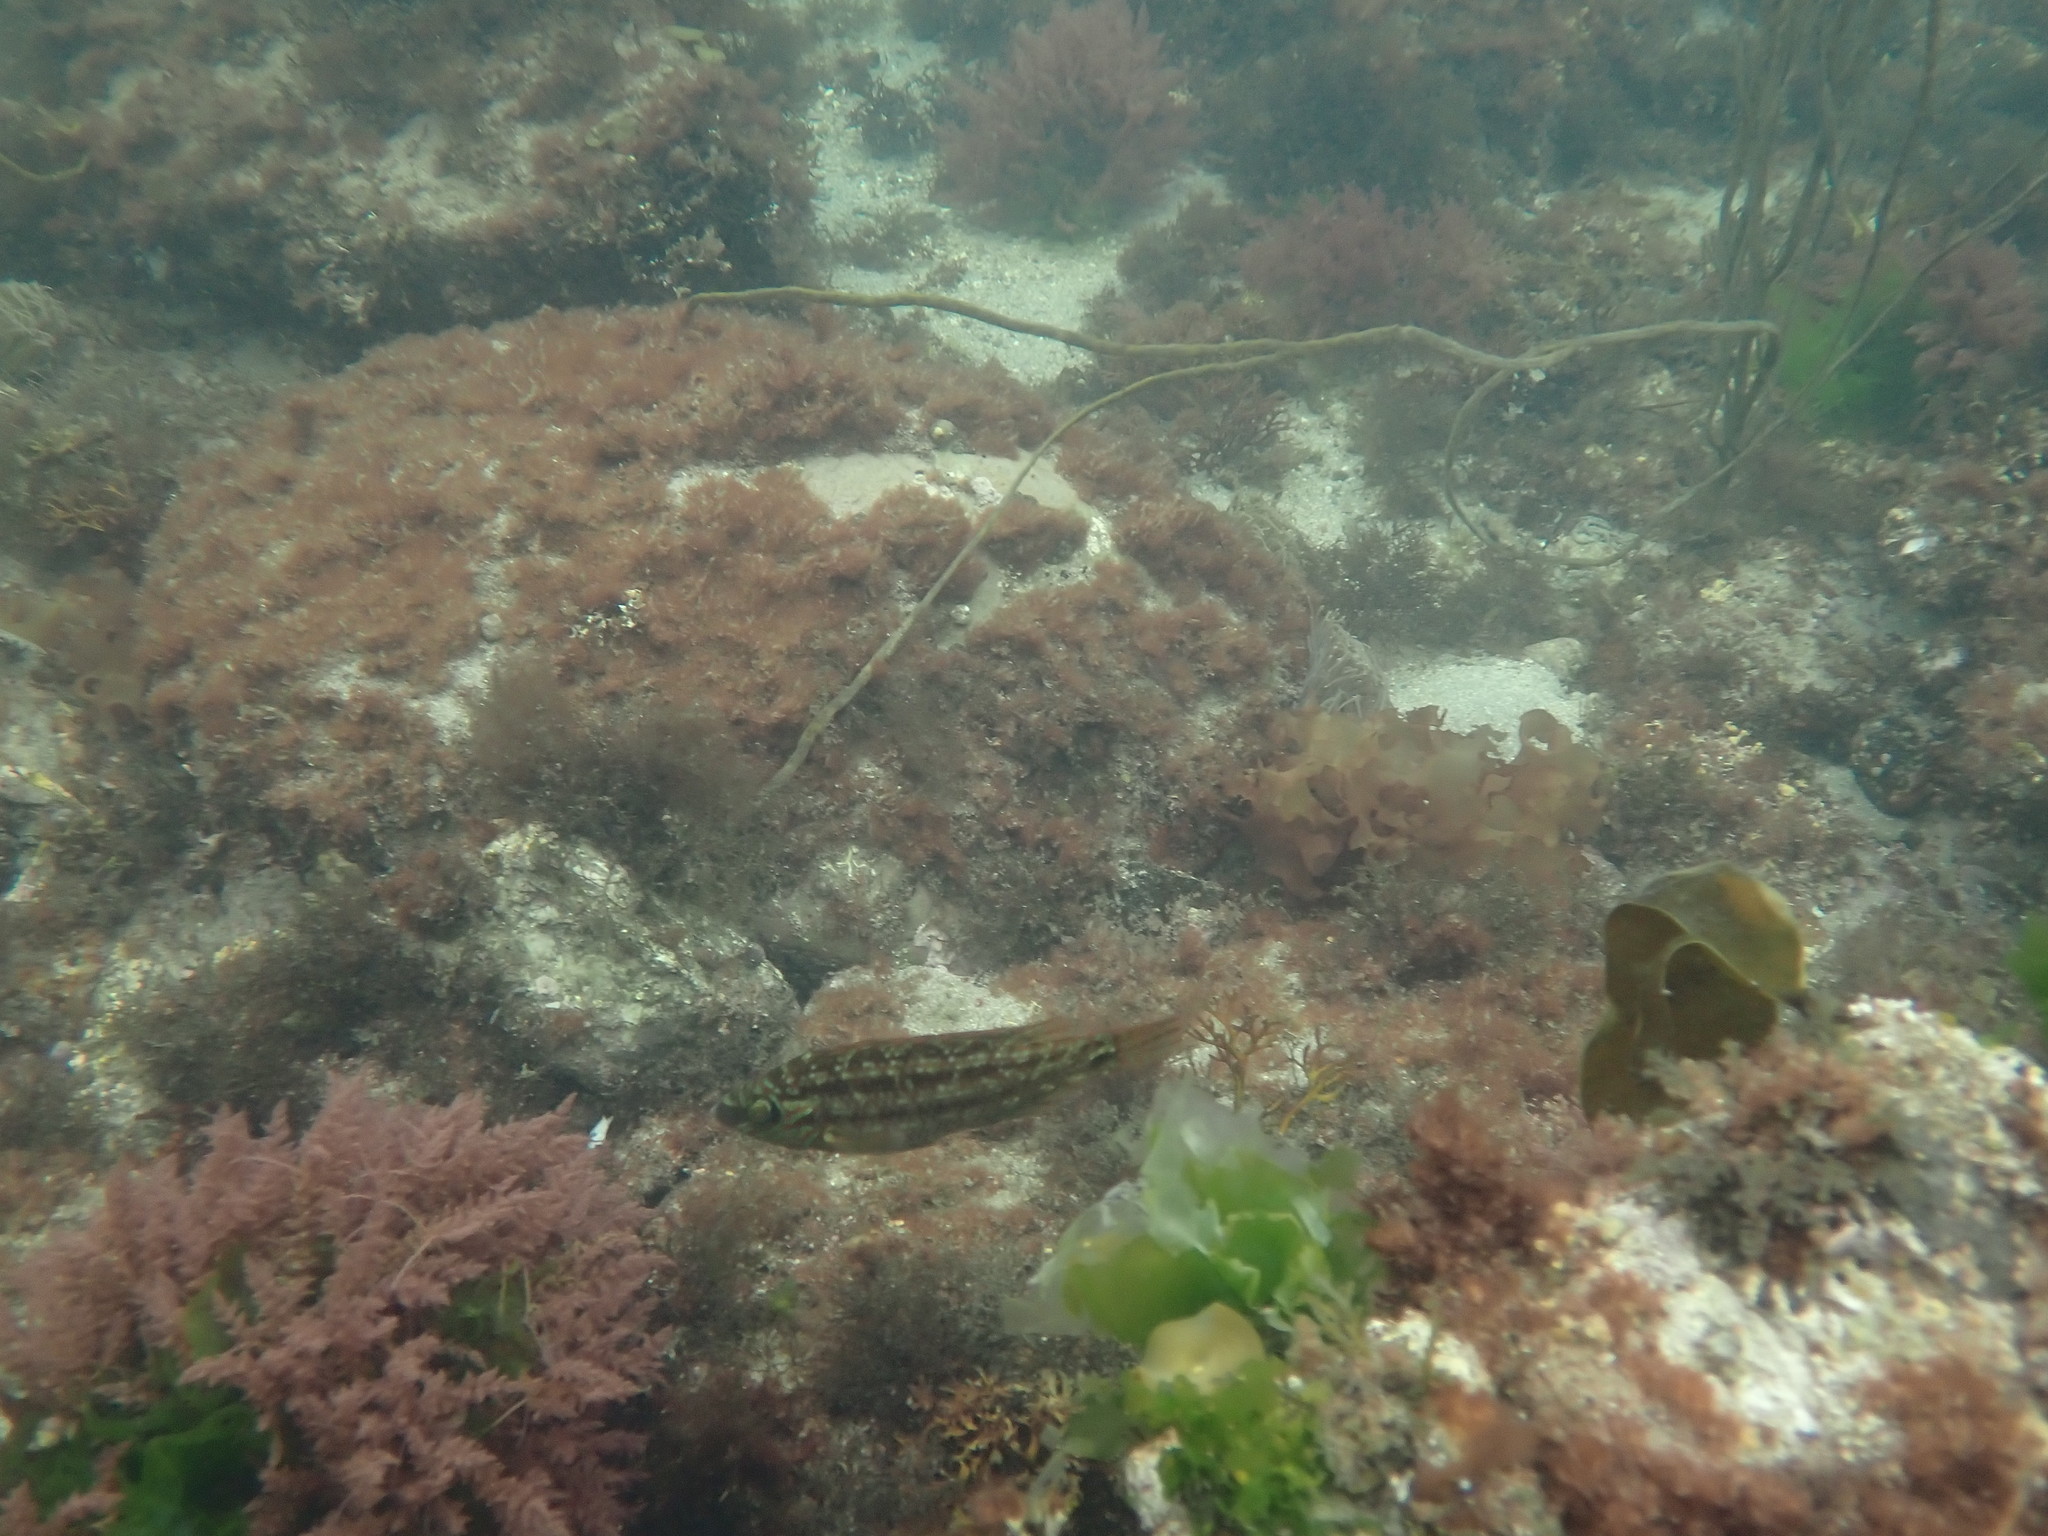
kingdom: Animalia
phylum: Chordata
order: Perciformes
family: Labridae
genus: Symphodus
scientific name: Symphodus melops
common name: Corkwing
